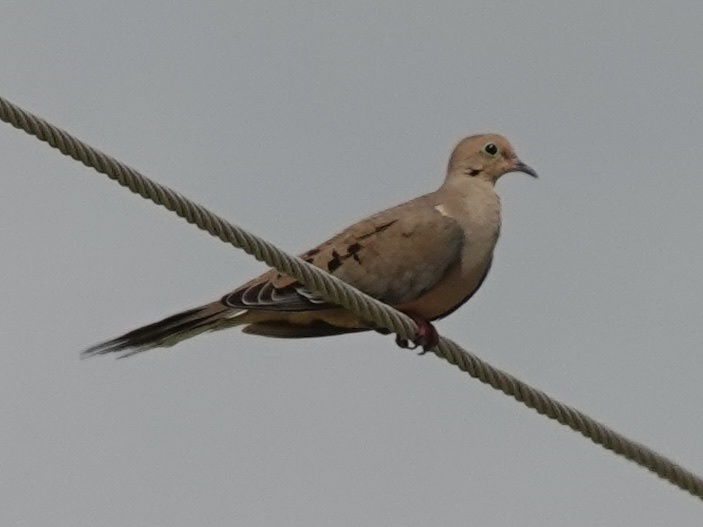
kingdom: Animalia
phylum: Chordata
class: Aves
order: Columbiformes
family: Columbidae
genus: Zenaida
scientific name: Zenaida macroura
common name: Mourning dove
